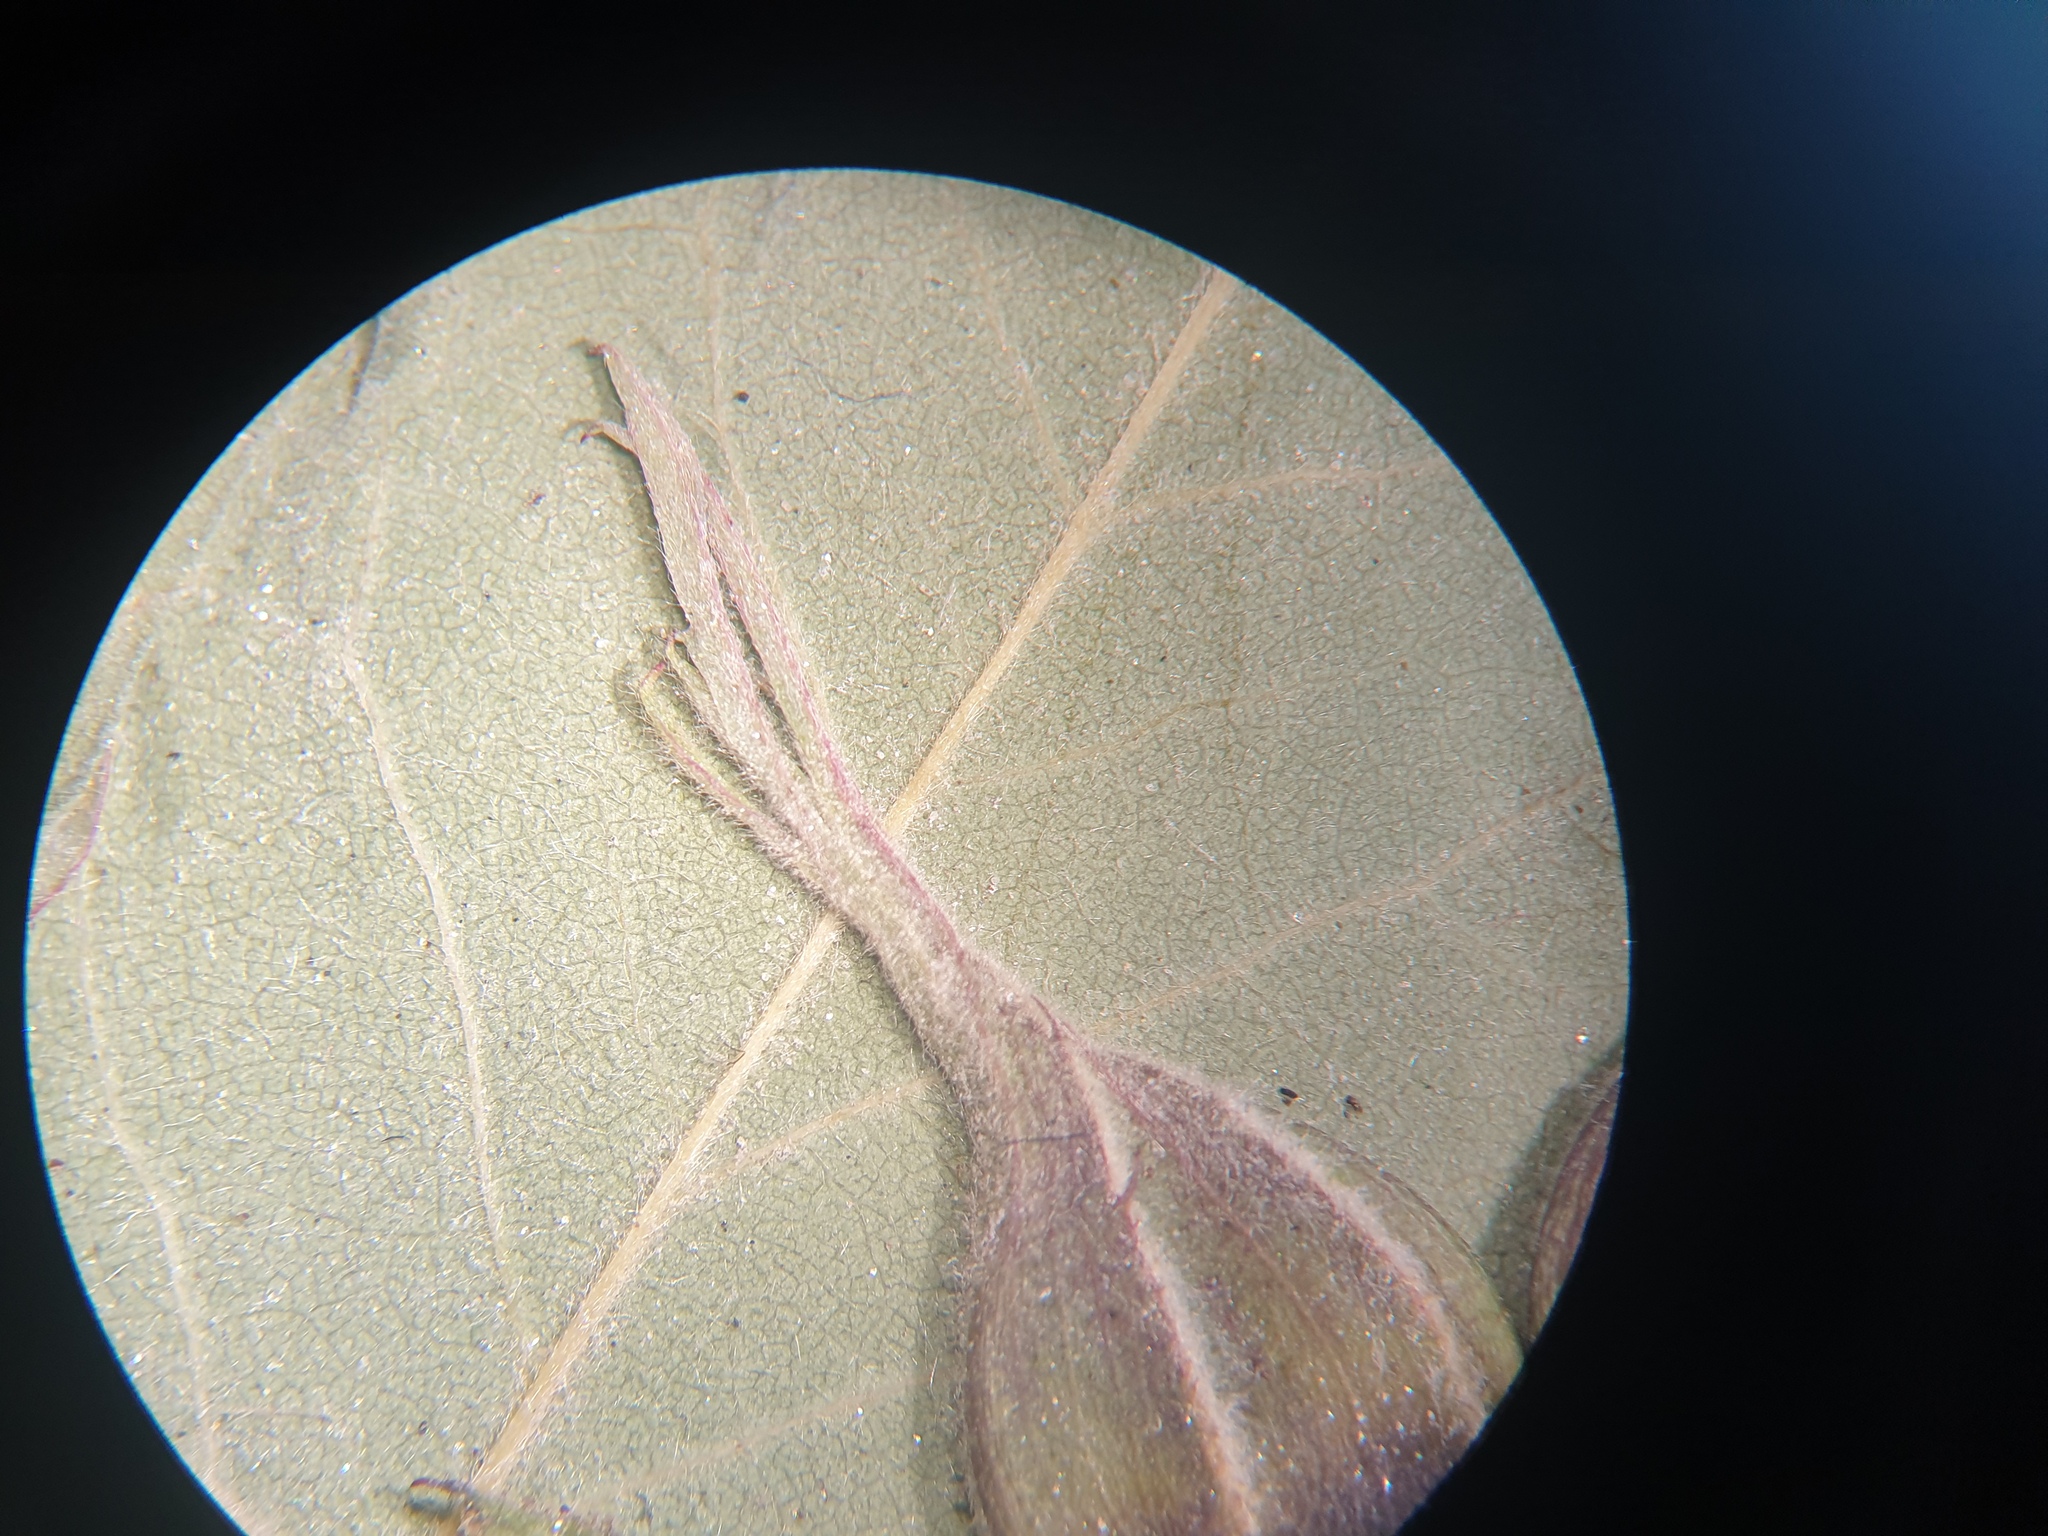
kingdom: Plantae
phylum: Tracheophyta
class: Magnoliopsida
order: Rosales
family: Rosaceae
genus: Rosa
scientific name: Rosa blanda
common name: Smooth rose
